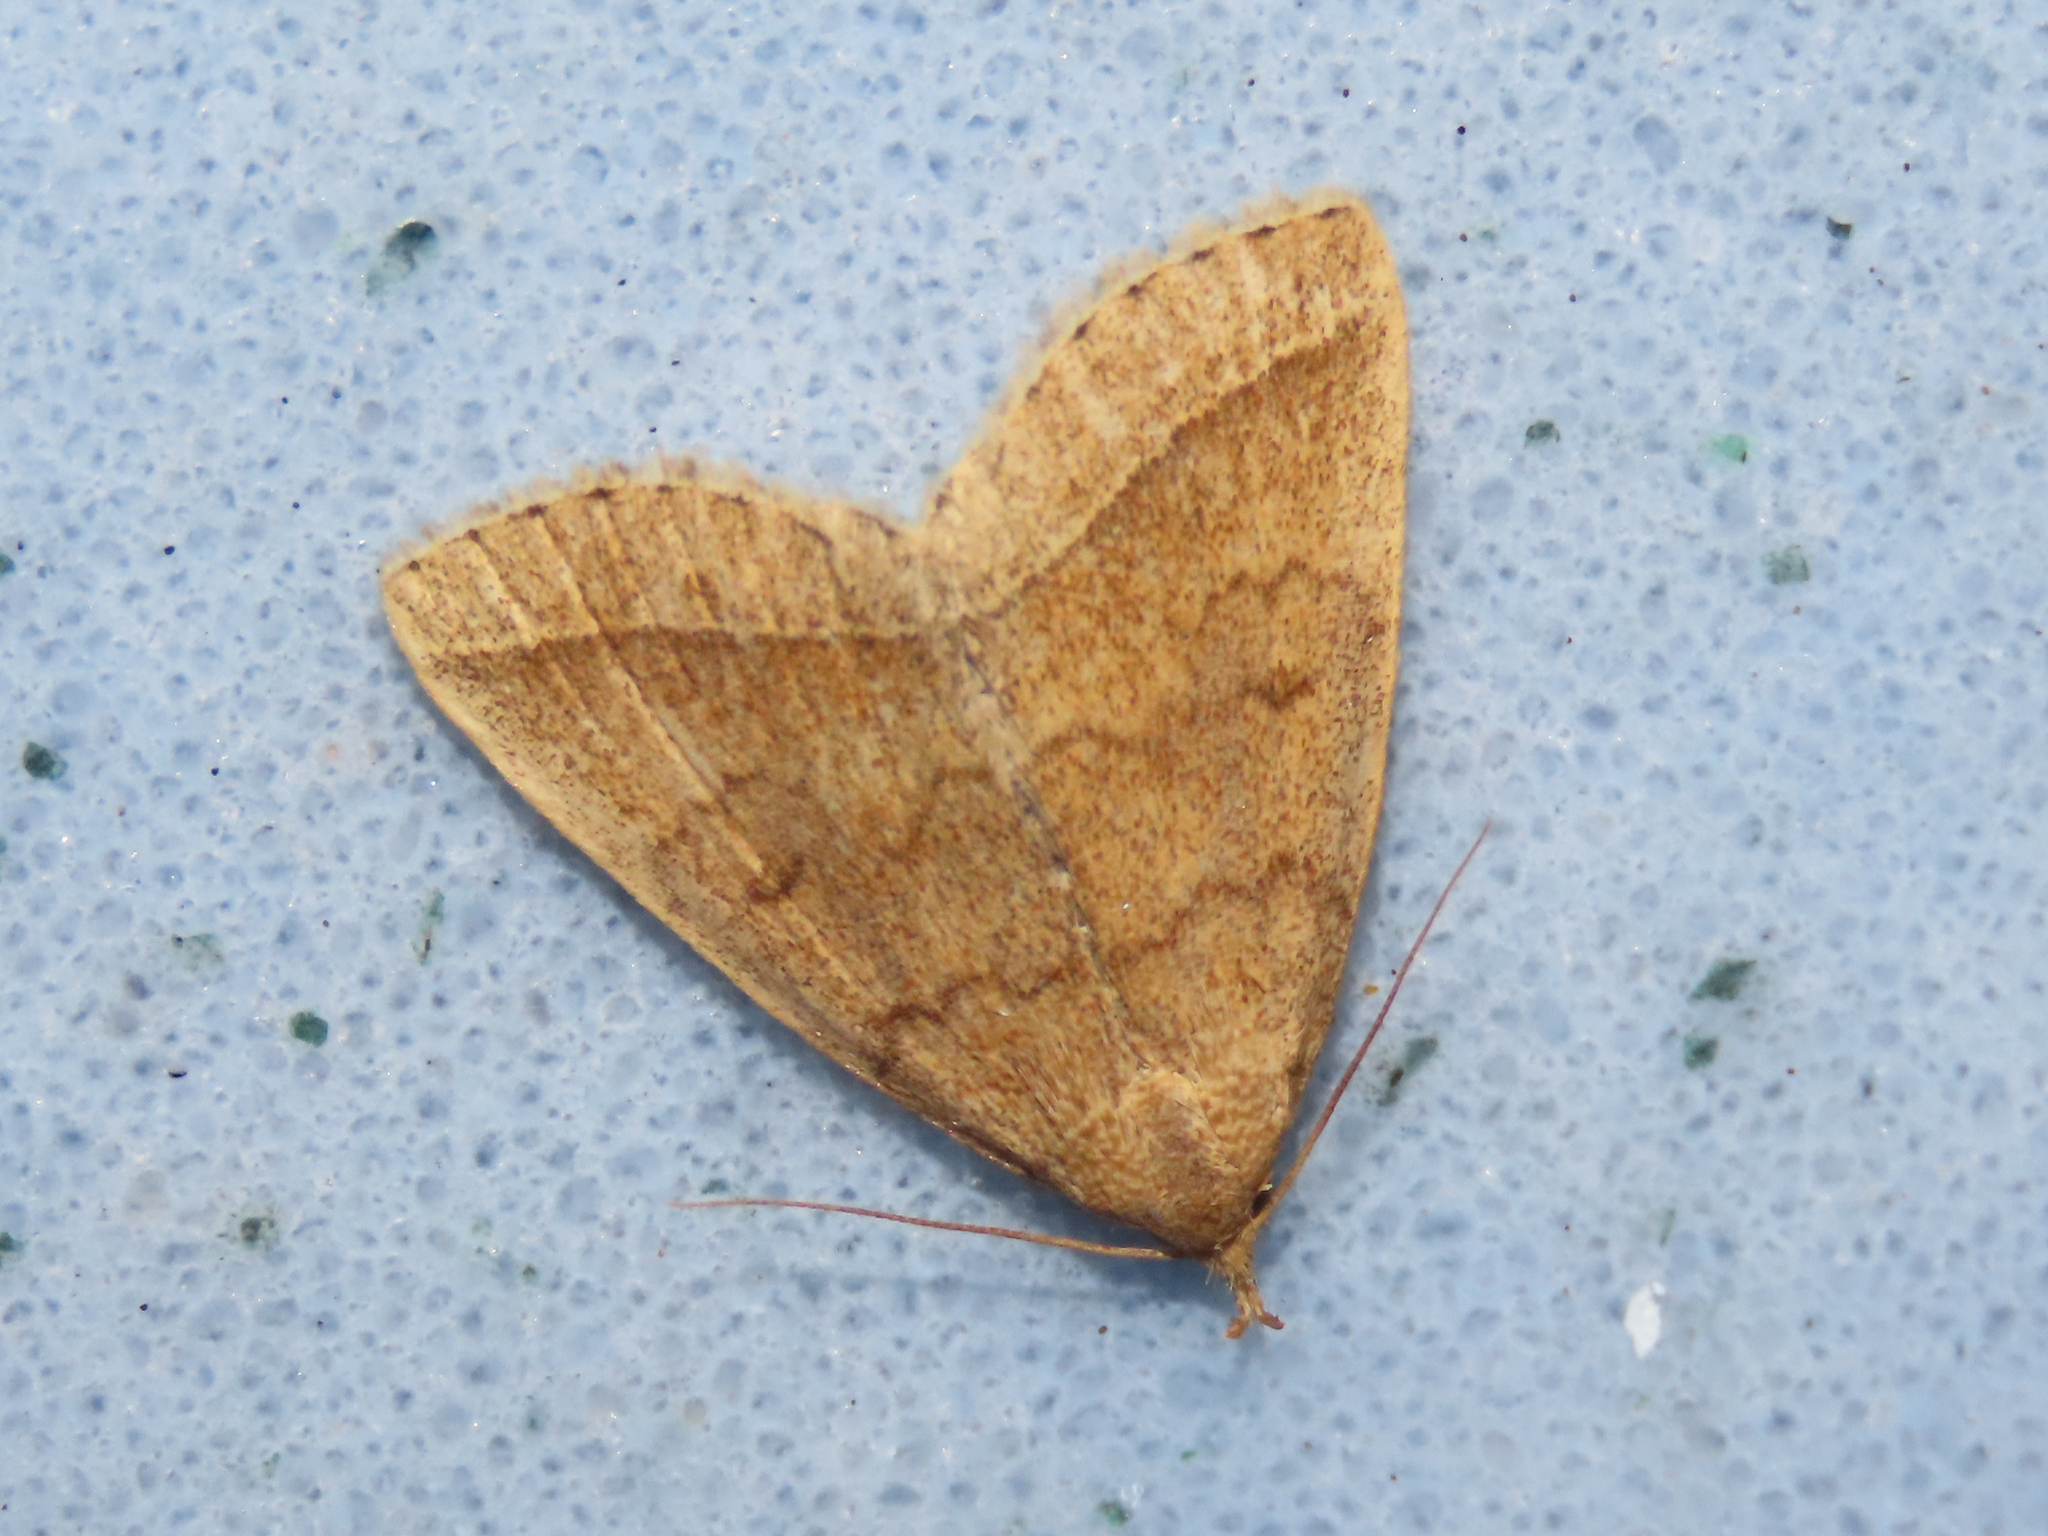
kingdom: Animalia
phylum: Arthropoda
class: Insecta
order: Lepidoptera
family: Erebidae
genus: Zanclognatha
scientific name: Zanclognatha jacchusalis
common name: Yellowish zanclognatha
